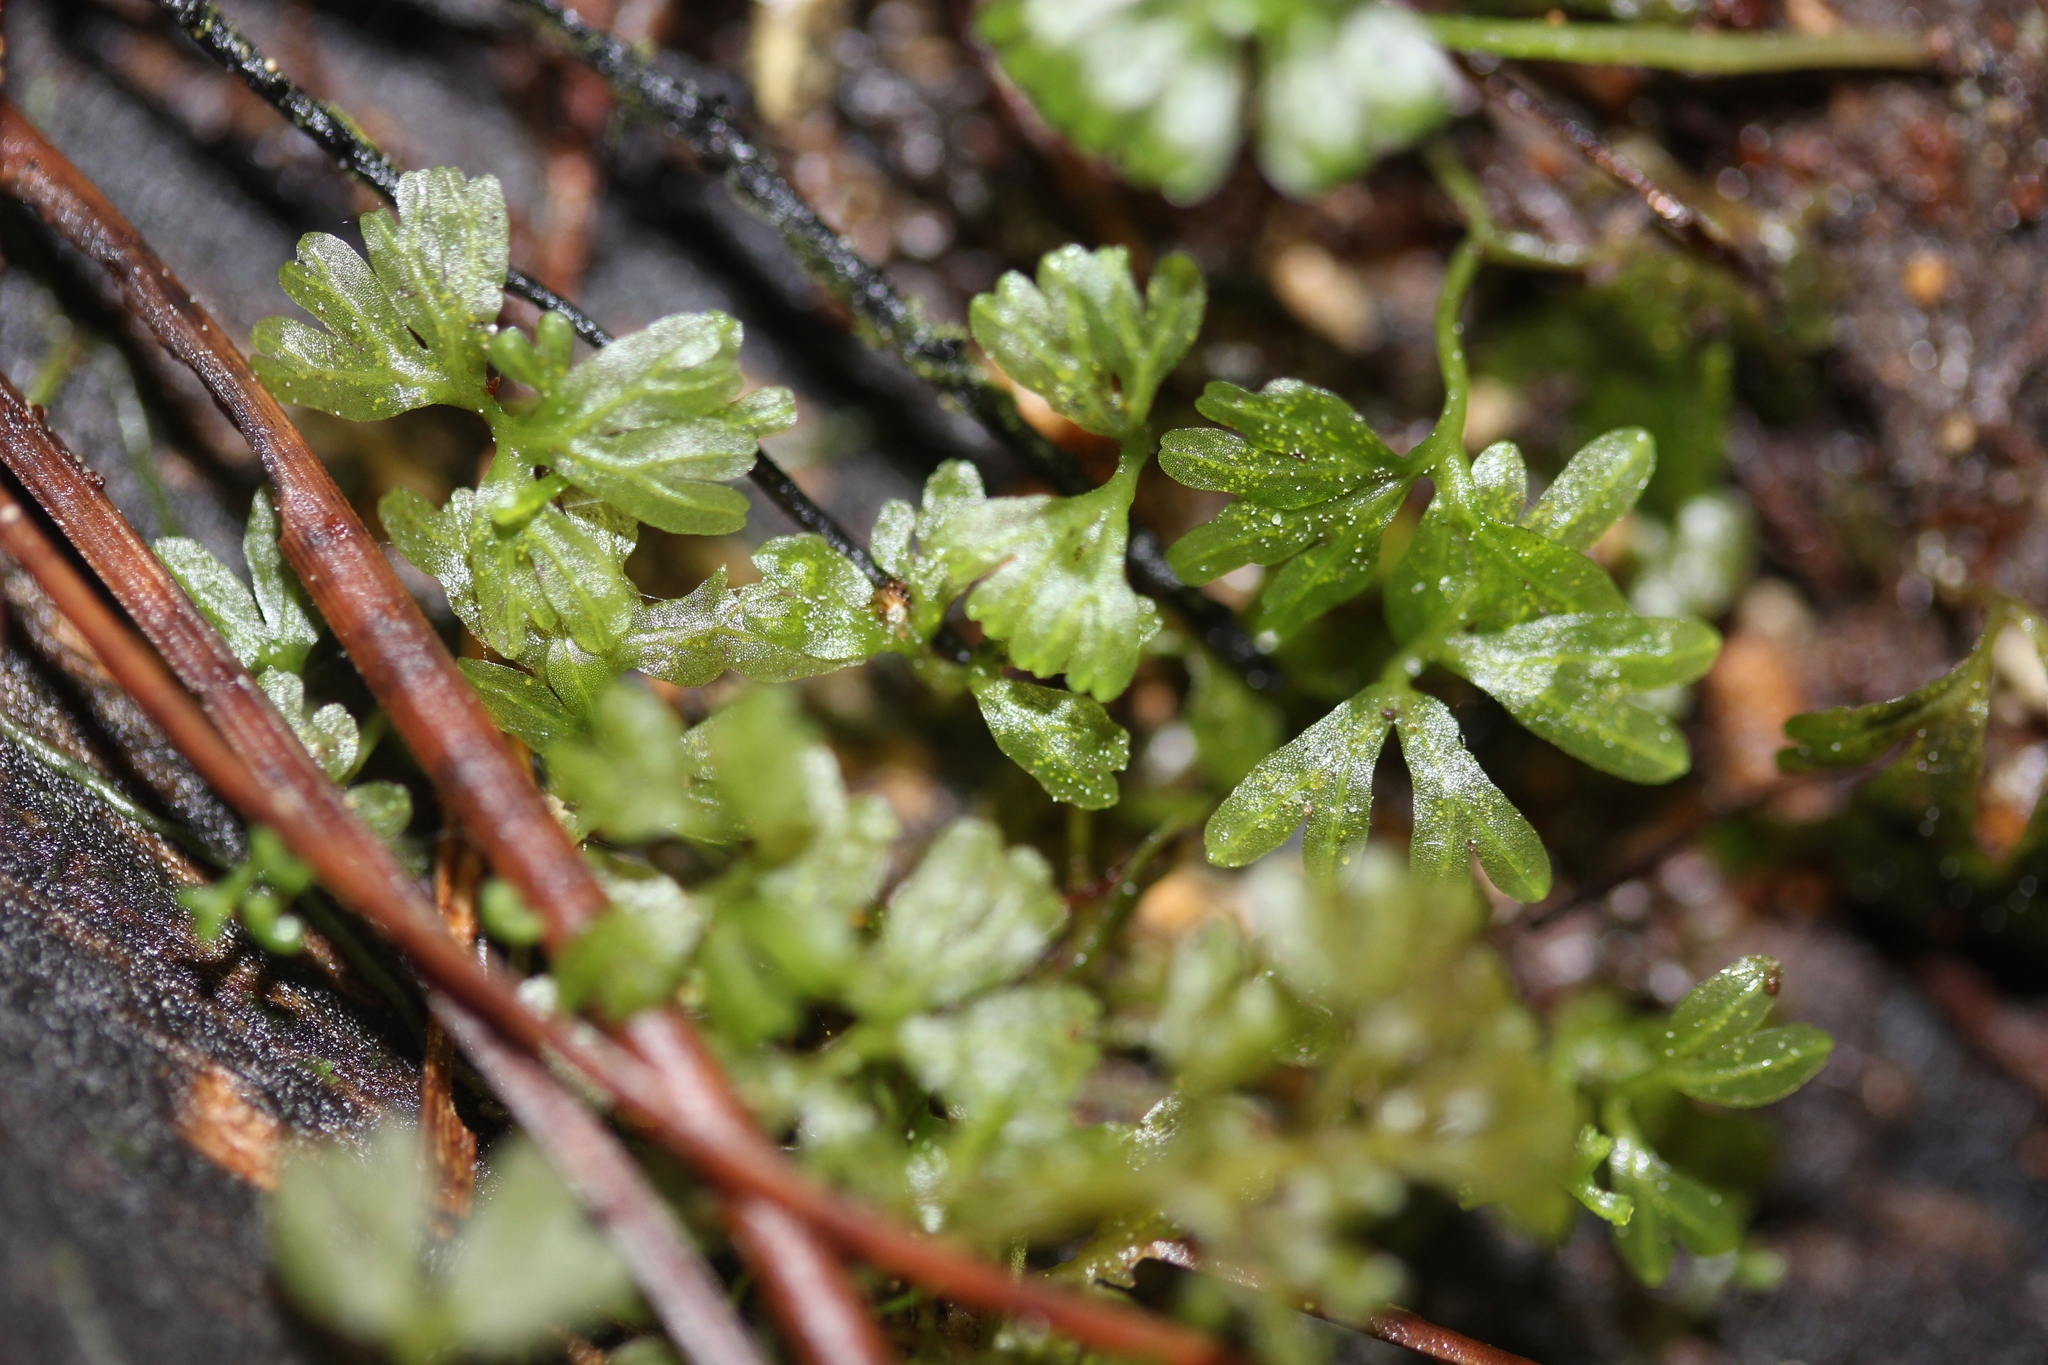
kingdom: Plantae
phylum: Marchantiophyta
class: Jungermanniopsida
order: Pallaviciniales
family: Hymenophytaceae
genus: Hymenophyton
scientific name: Hymenophyton flabellatum
